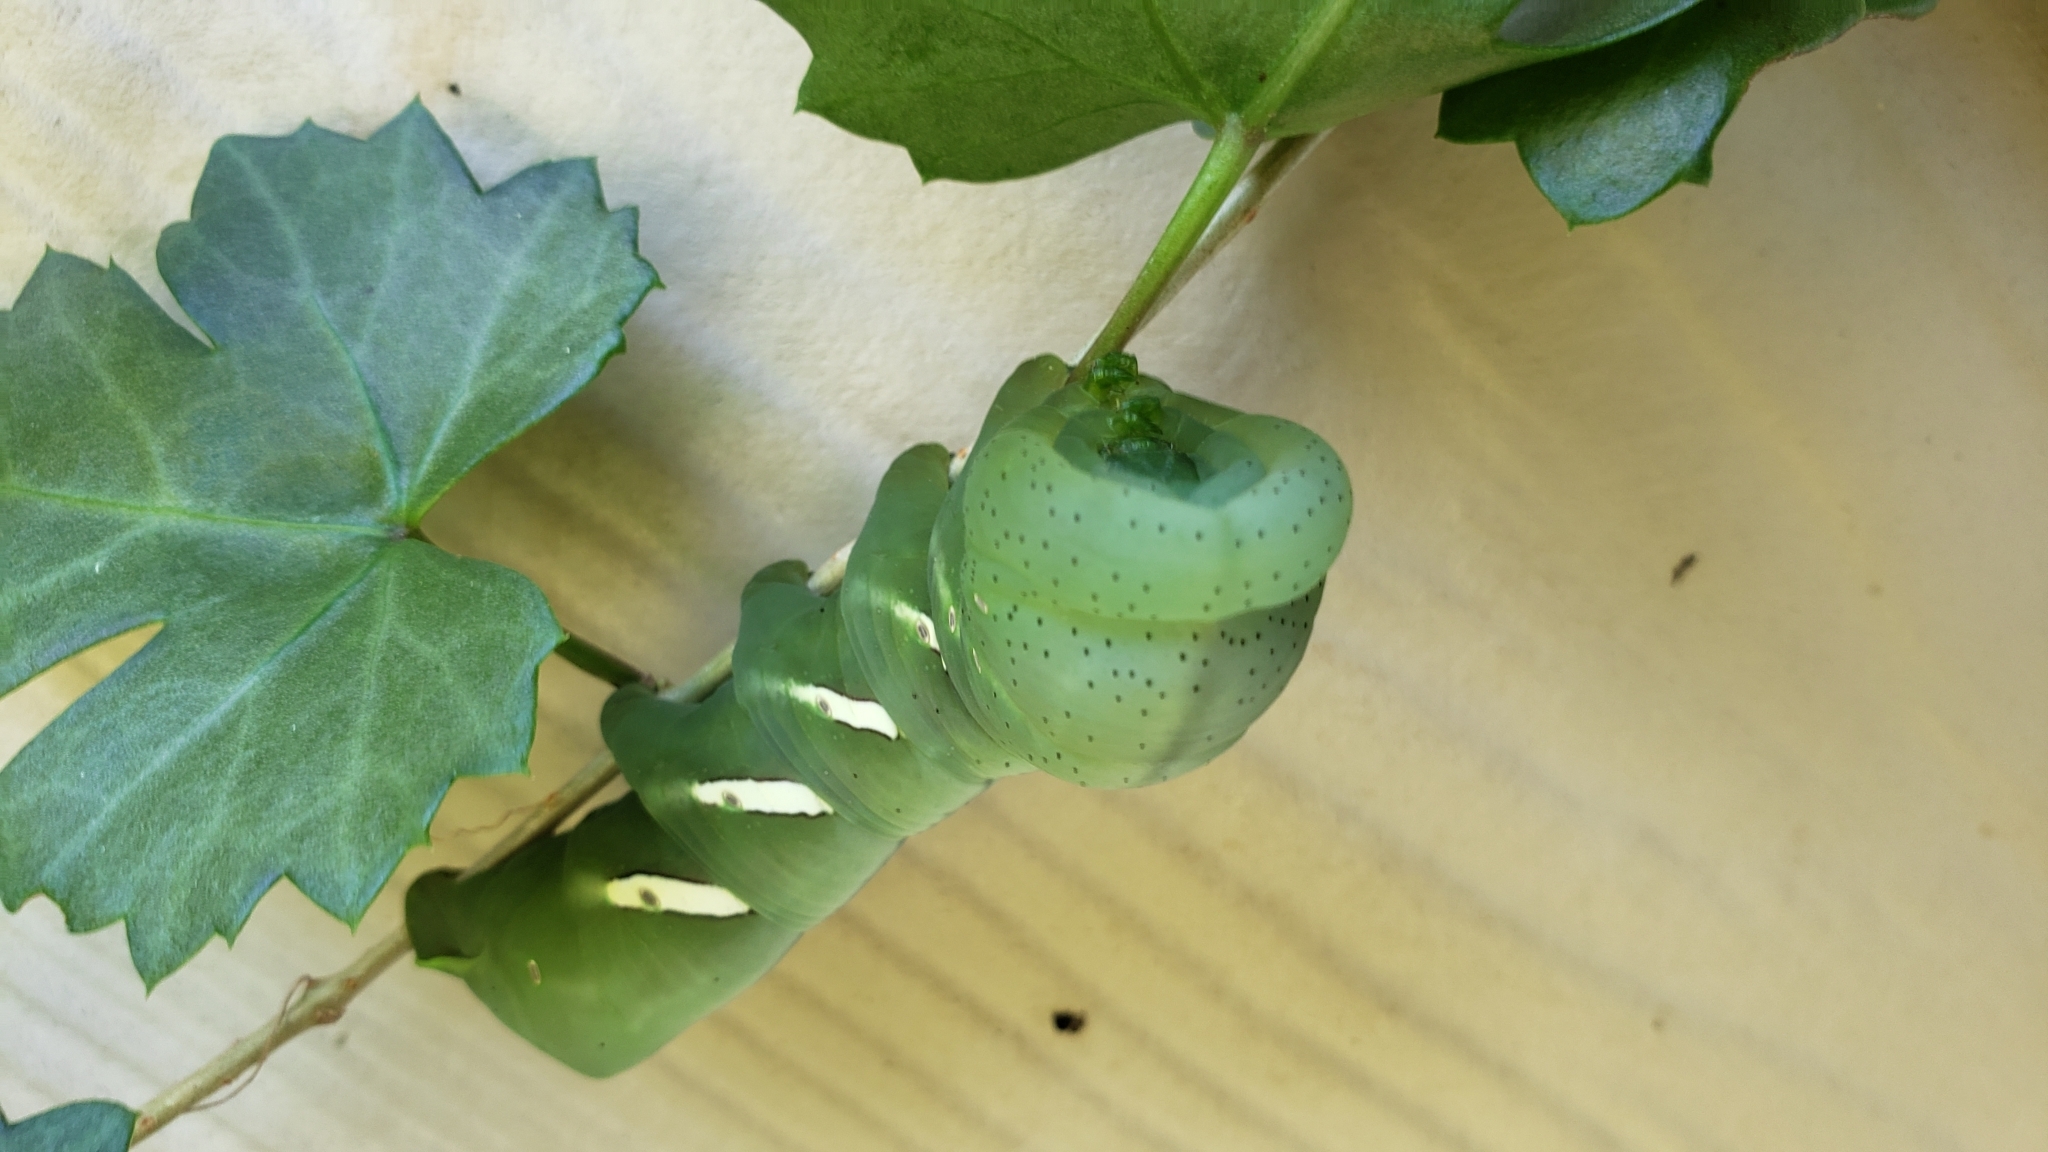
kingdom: Animalia
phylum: Arthropoda
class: Insecta
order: Lepidoptera
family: Sphingidae
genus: Eumorpha
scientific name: Eumorpha vitis
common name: Vine sphinx
